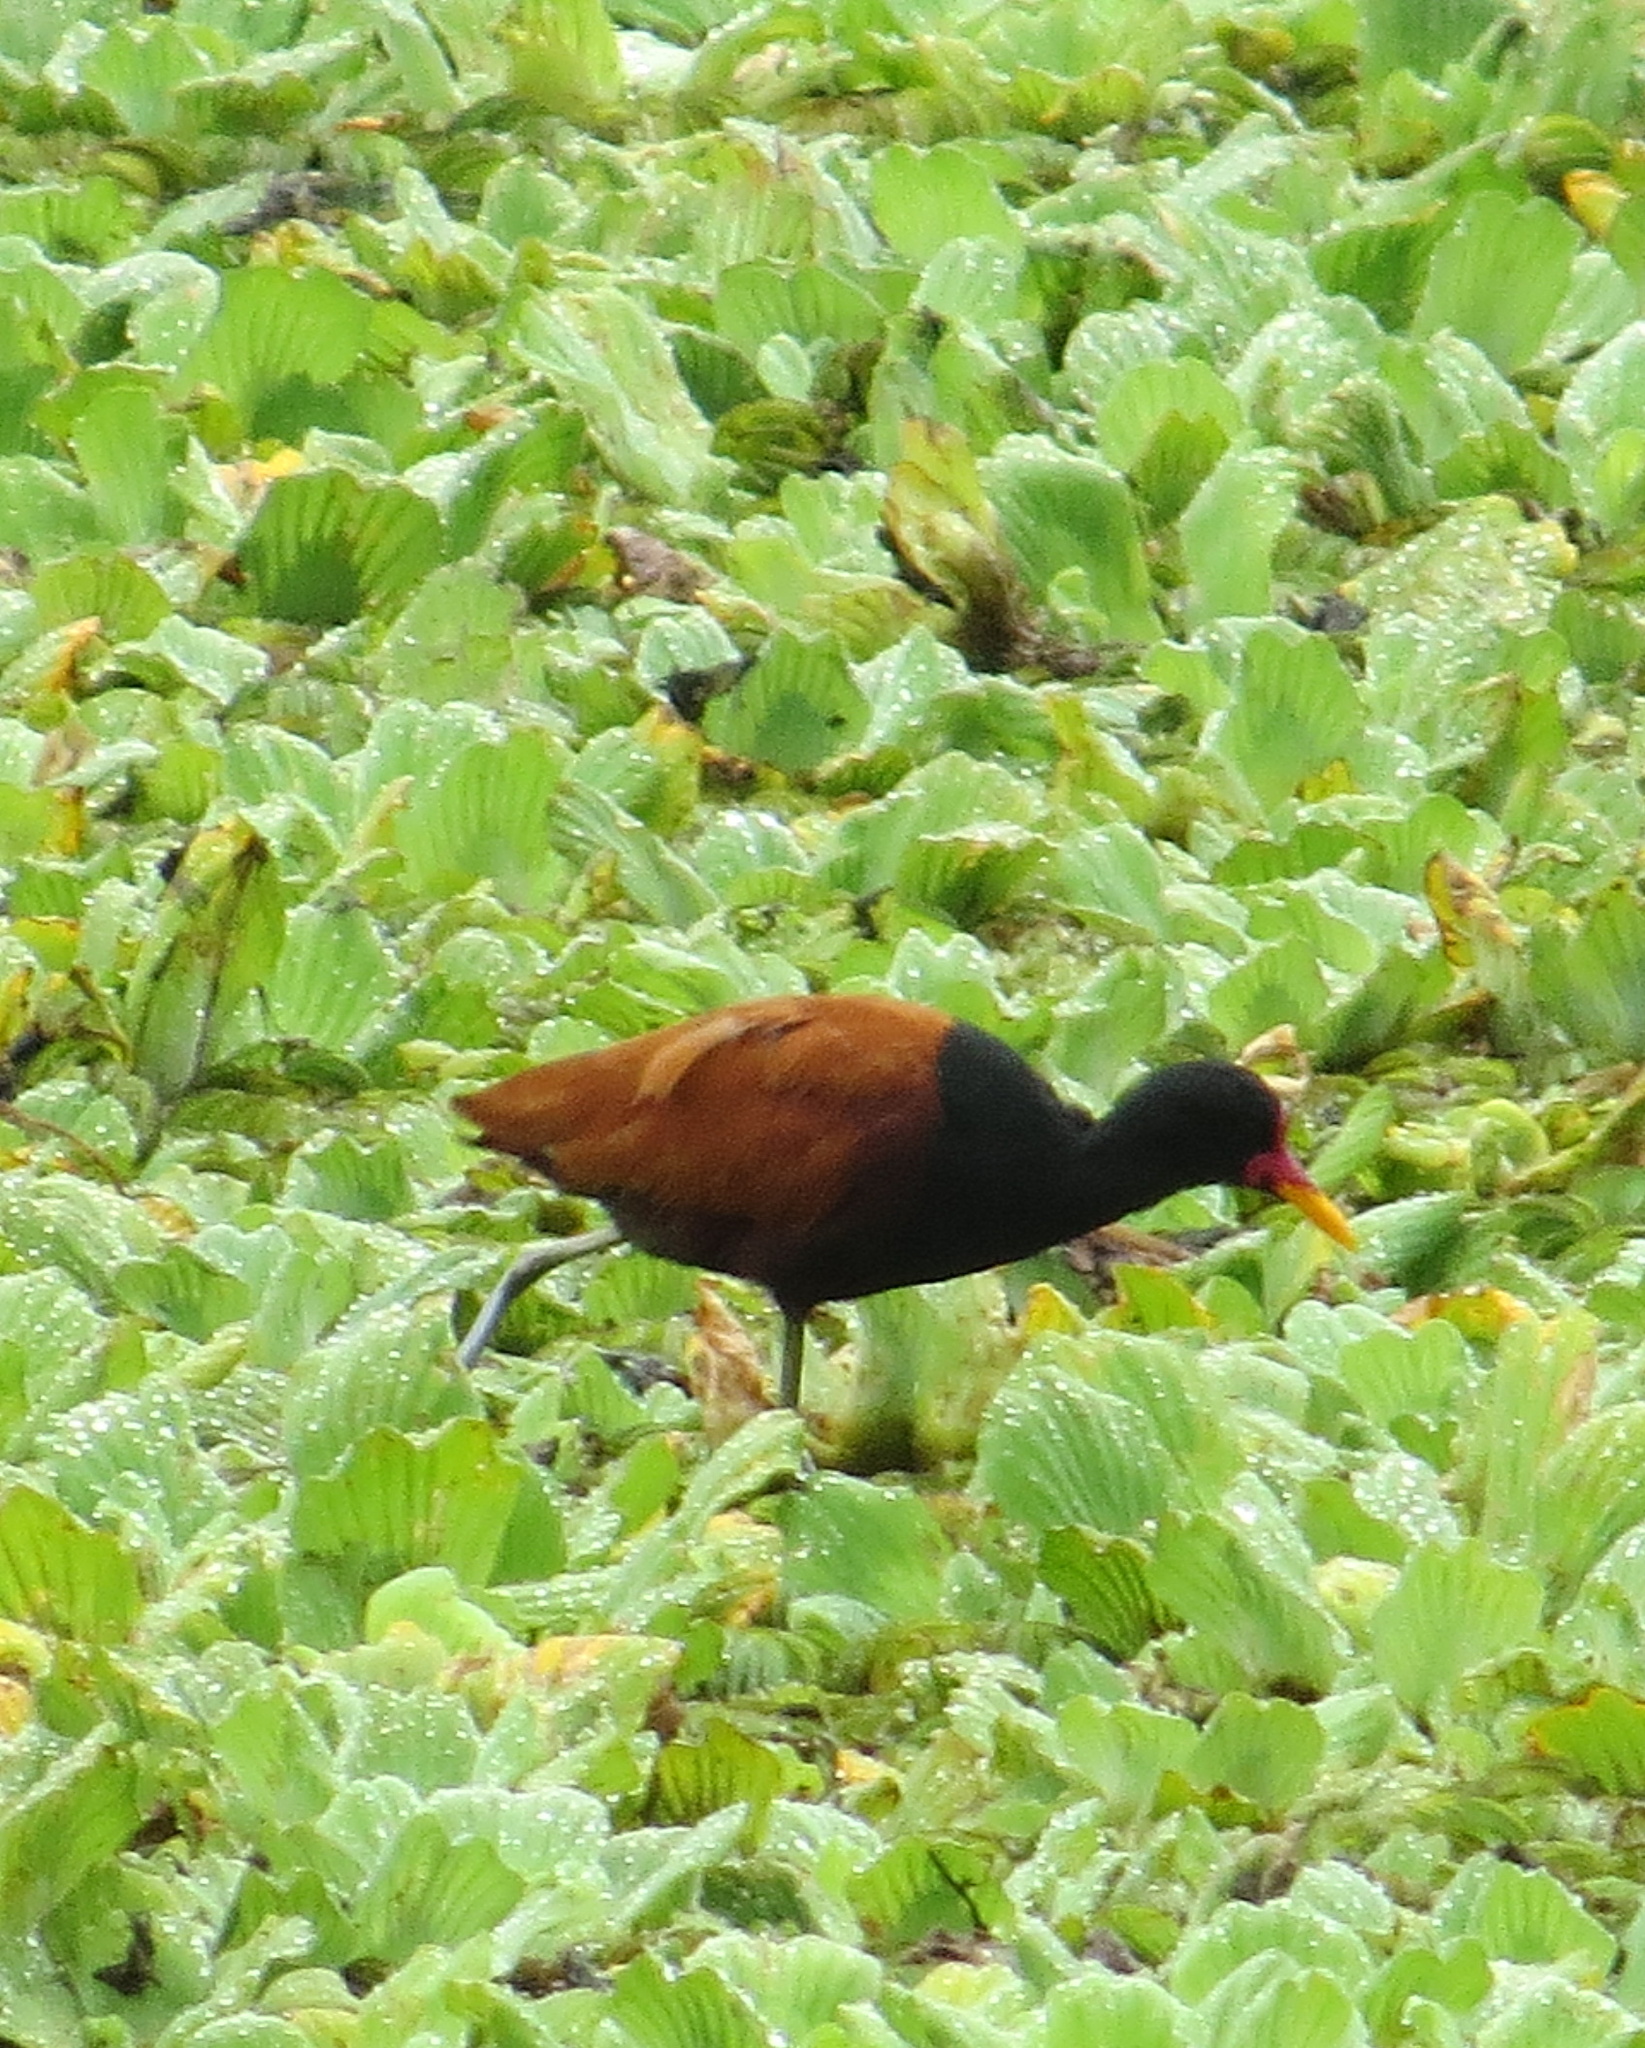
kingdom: Animalia
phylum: Chordata
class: Aves
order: Charadriiformes
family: Jacanidae
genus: Jacana
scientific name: Jacana jacana
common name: Wattled jacana
